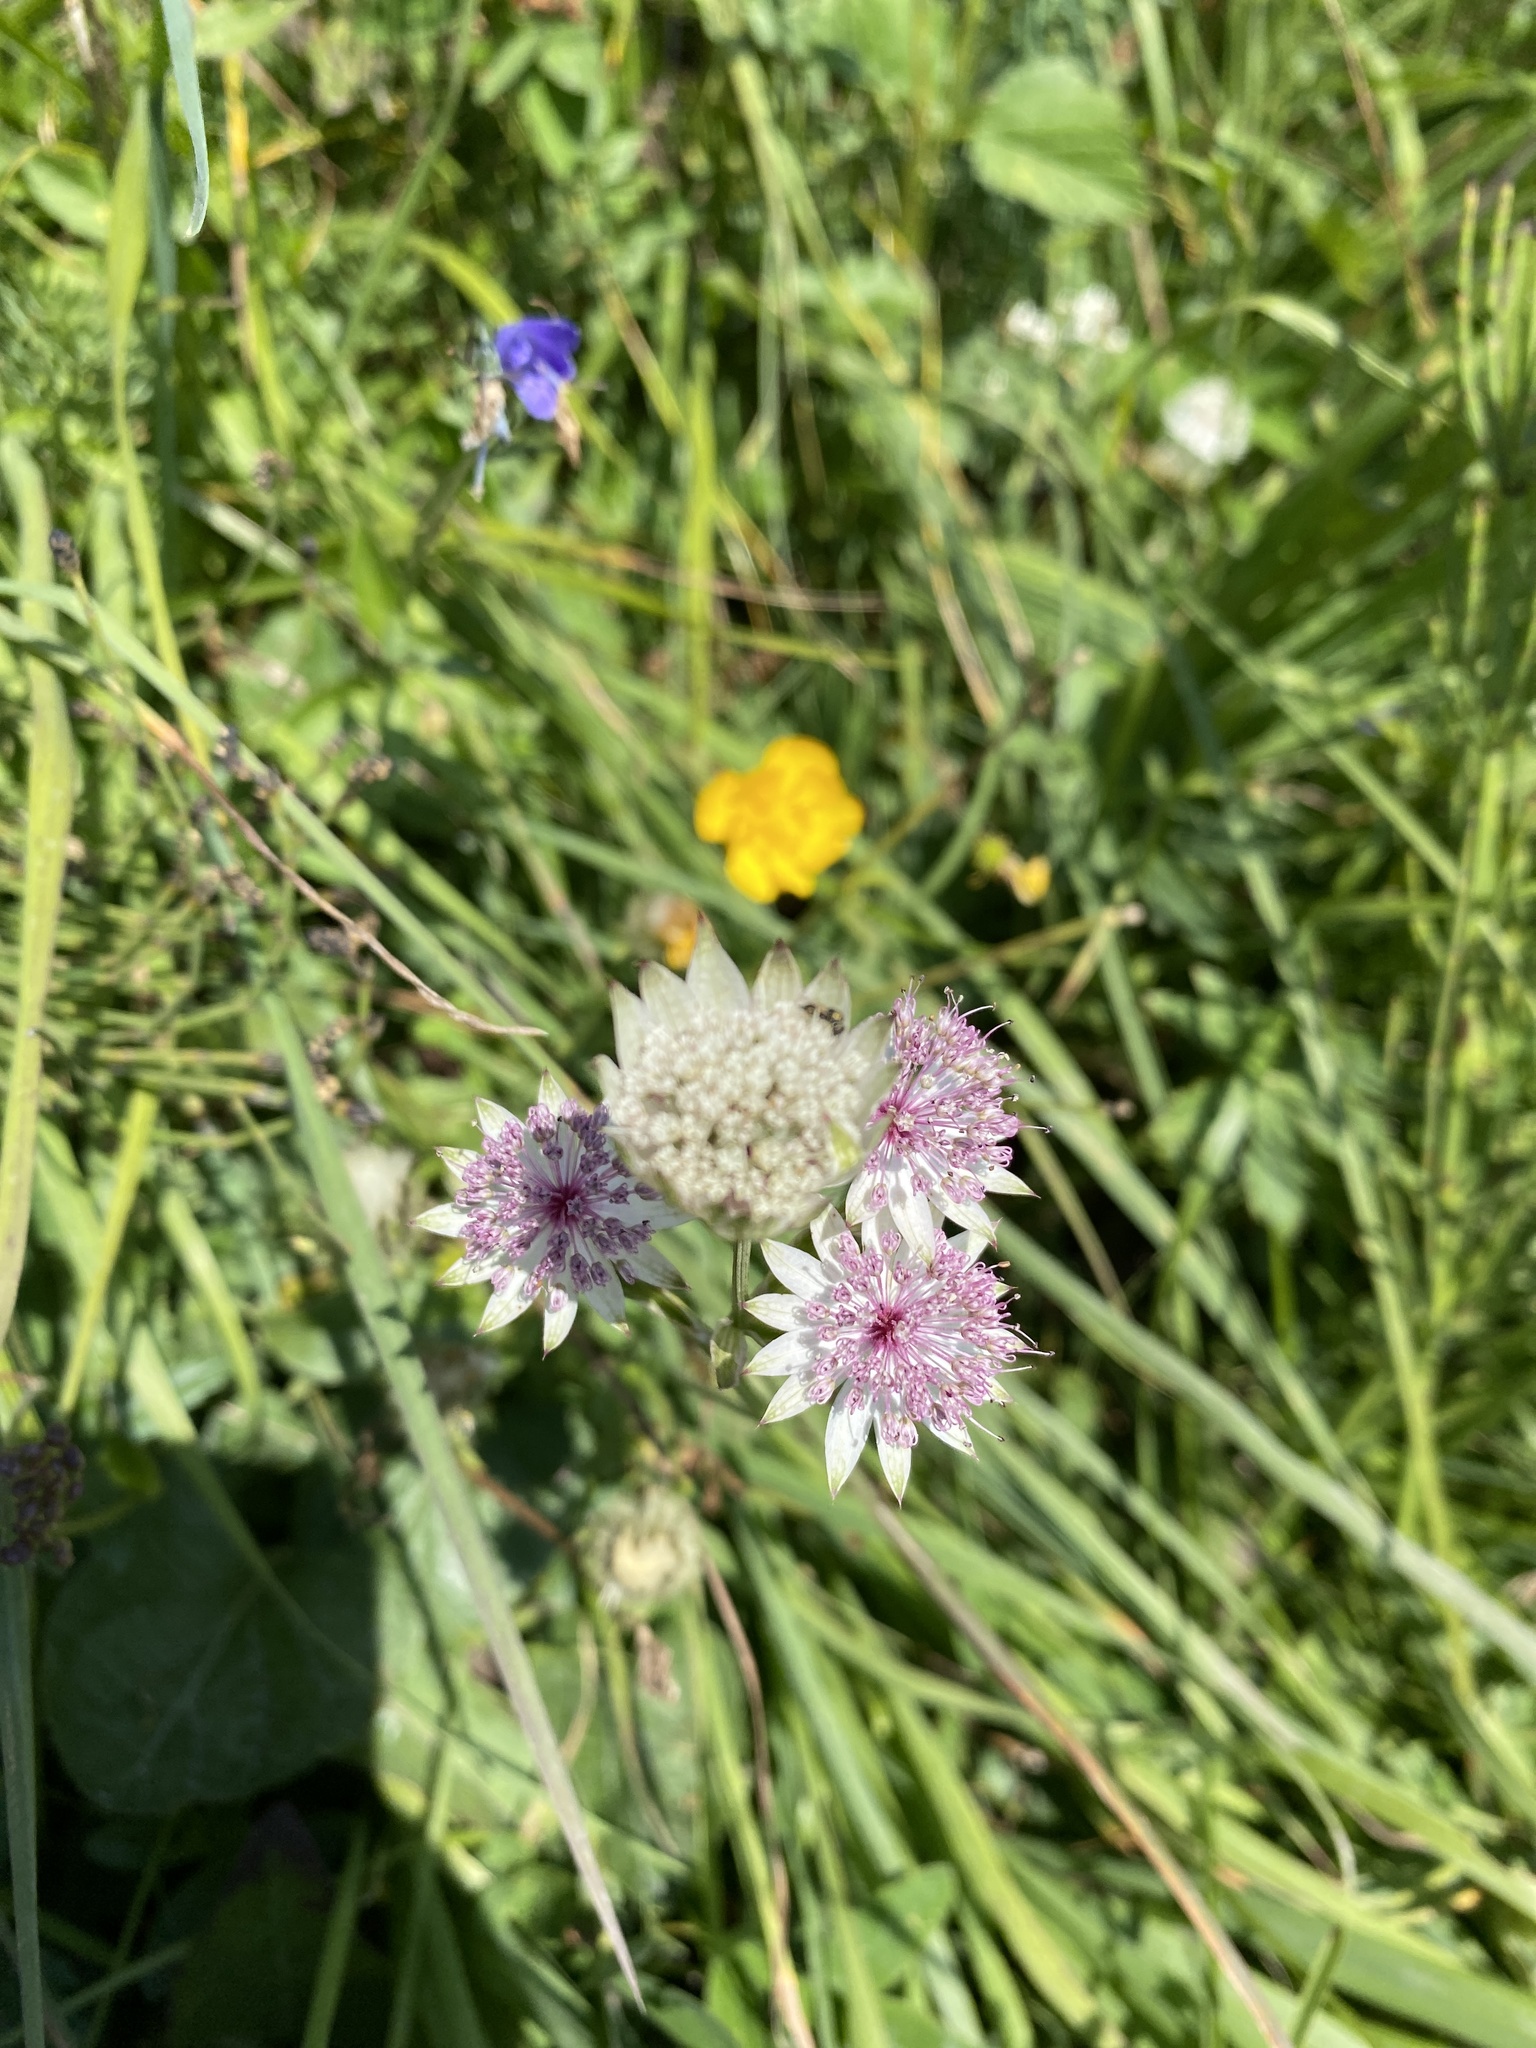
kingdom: Plantae
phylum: Tracheophyta
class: Magnoliopsida
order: Apiales
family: Apiaceae
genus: Astrantia
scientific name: Astrantia major
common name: Greater masterwort
